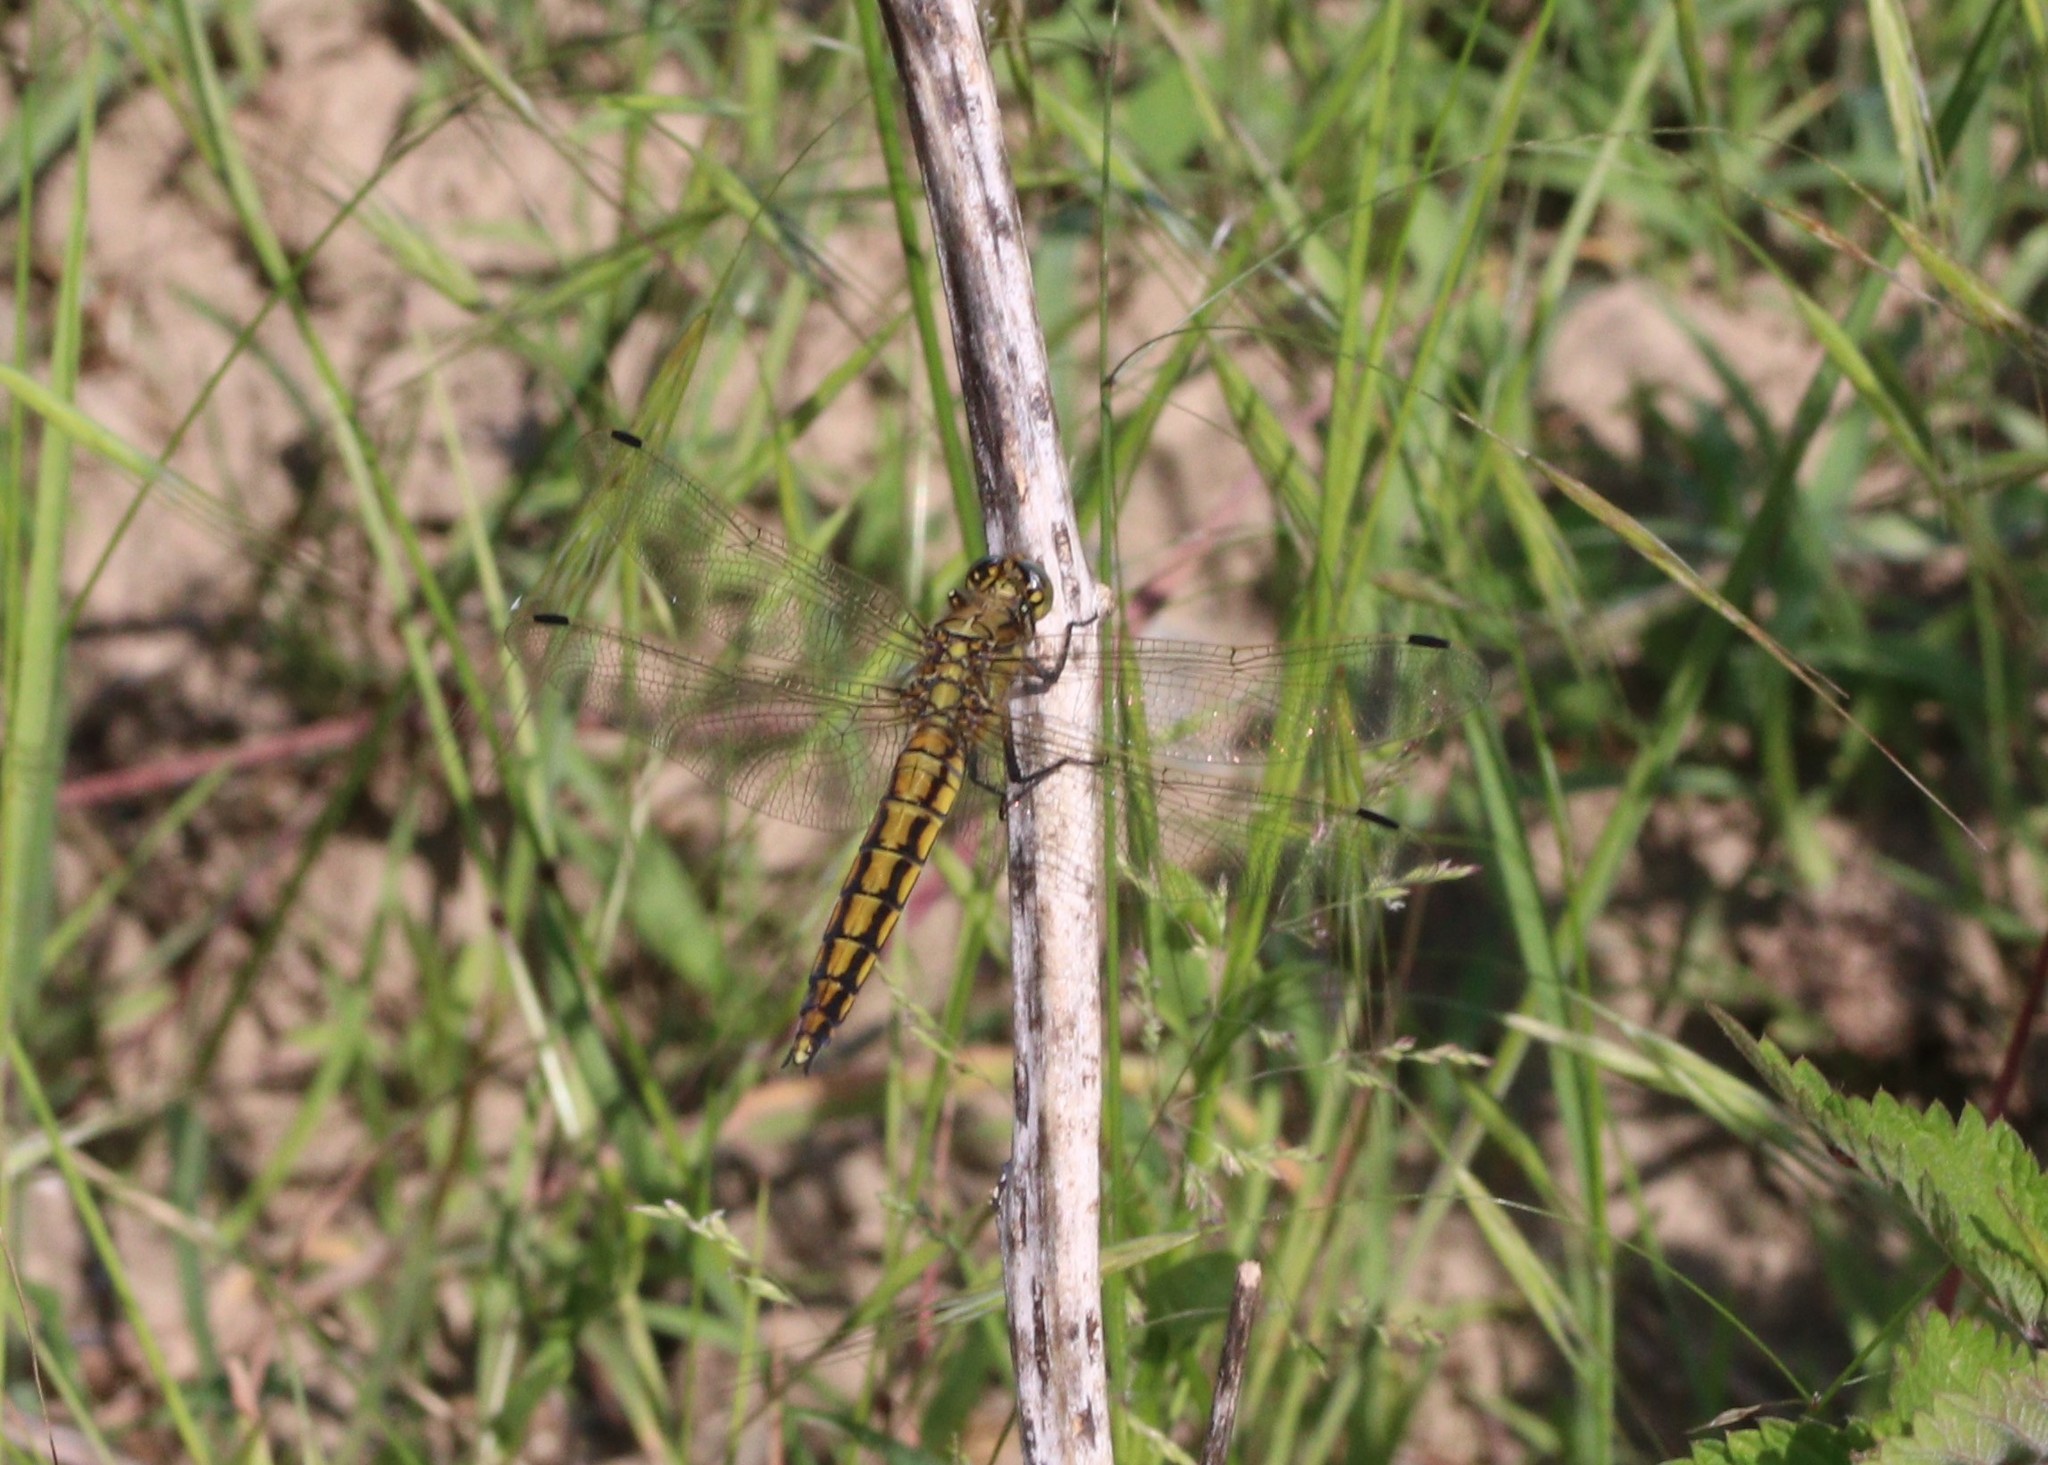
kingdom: Animalia
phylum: Arthropoda
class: Insecta
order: Odonata
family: Libellulidae
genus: Orthetrum
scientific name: Orthetrum cancellatum
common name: Black-tailed skimmer
